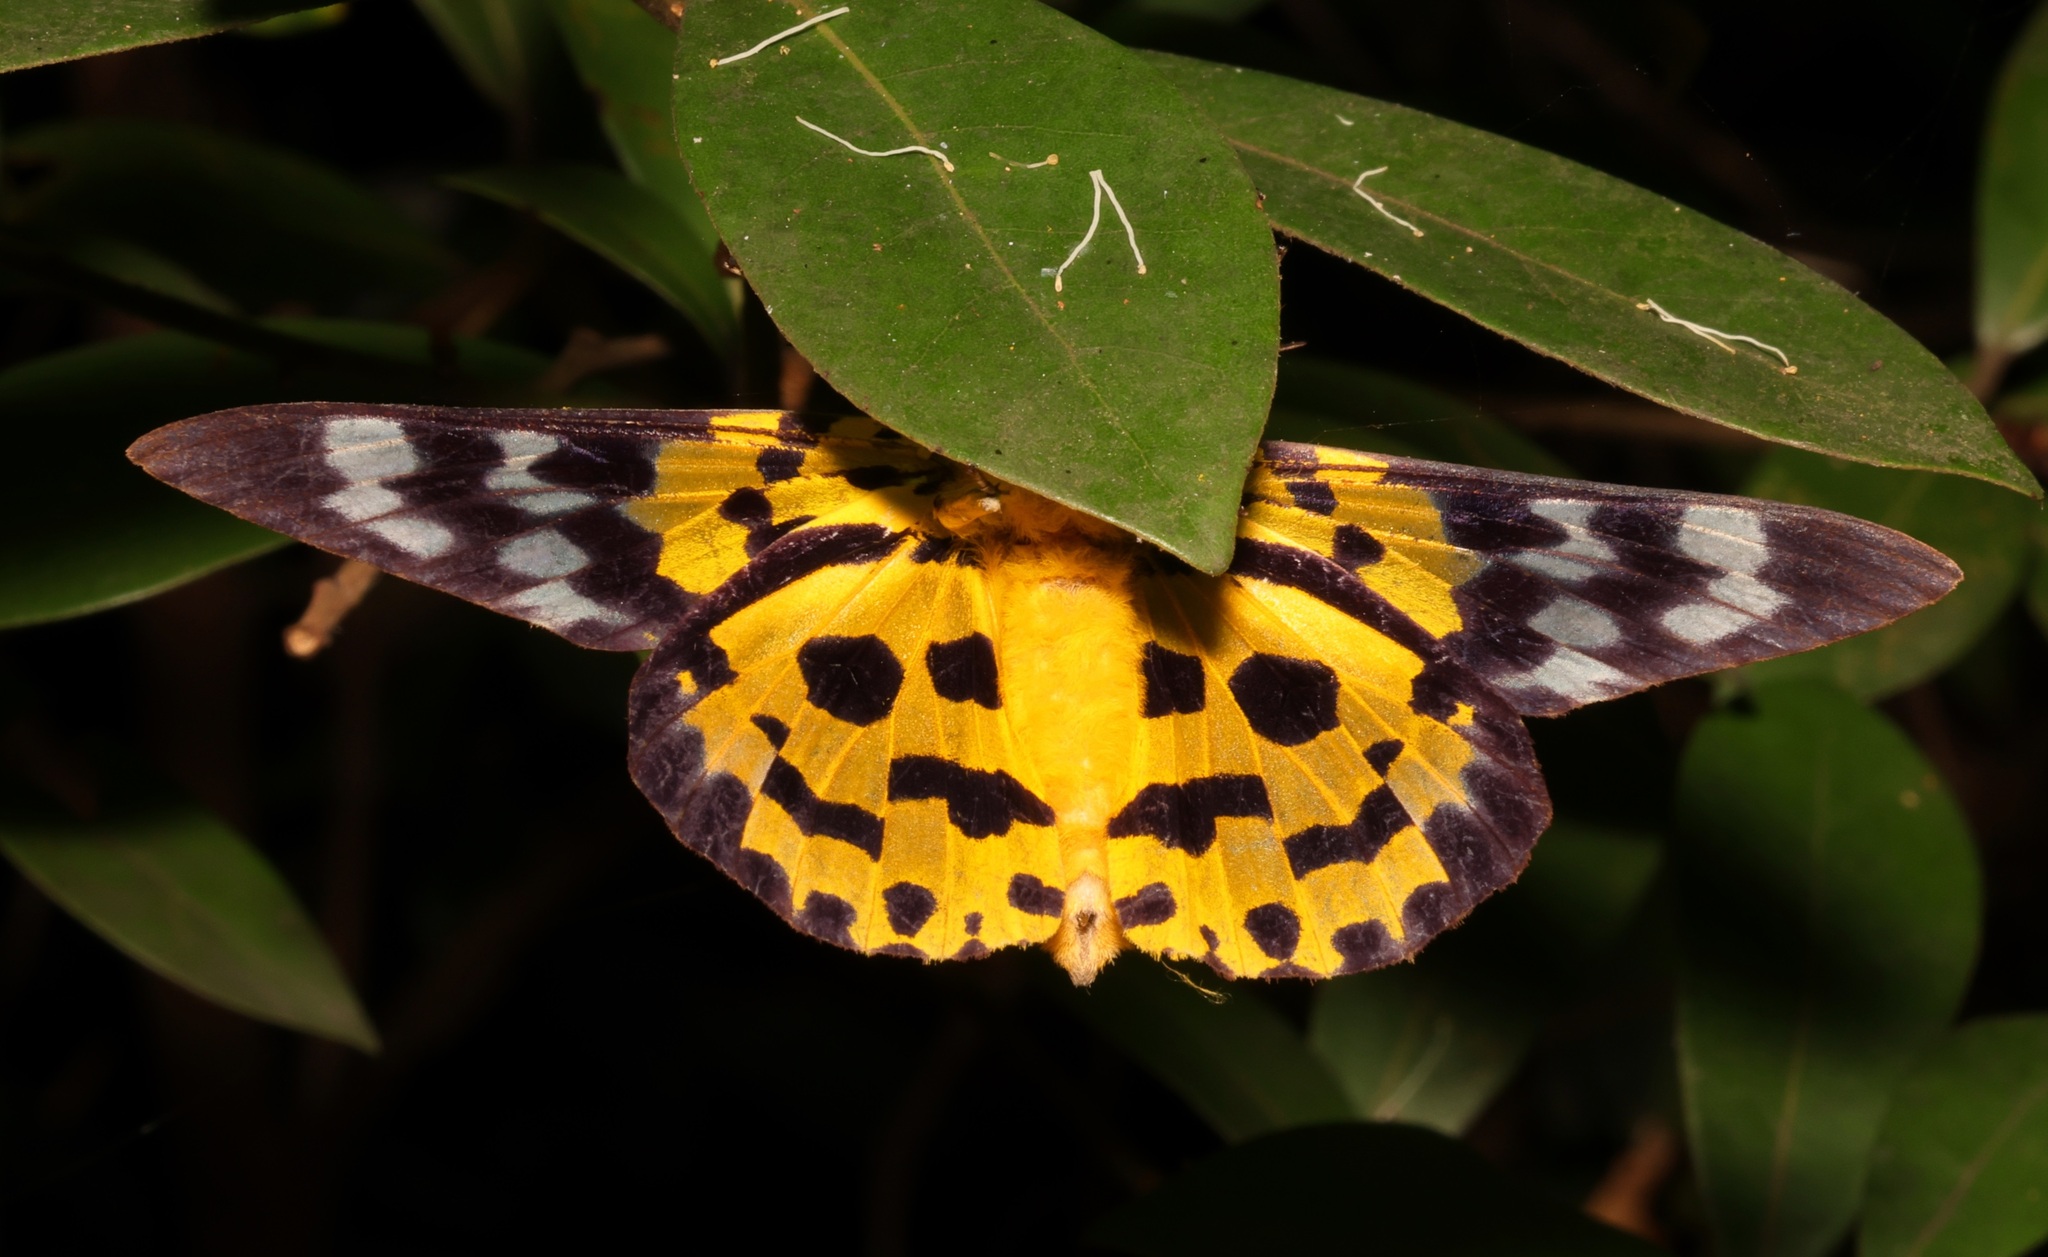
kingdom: Animalia
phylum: Arthropoda
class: Insecta
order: Lepidoptera
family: Geometridae
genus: Dysphania
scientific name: Dysphania militaris
